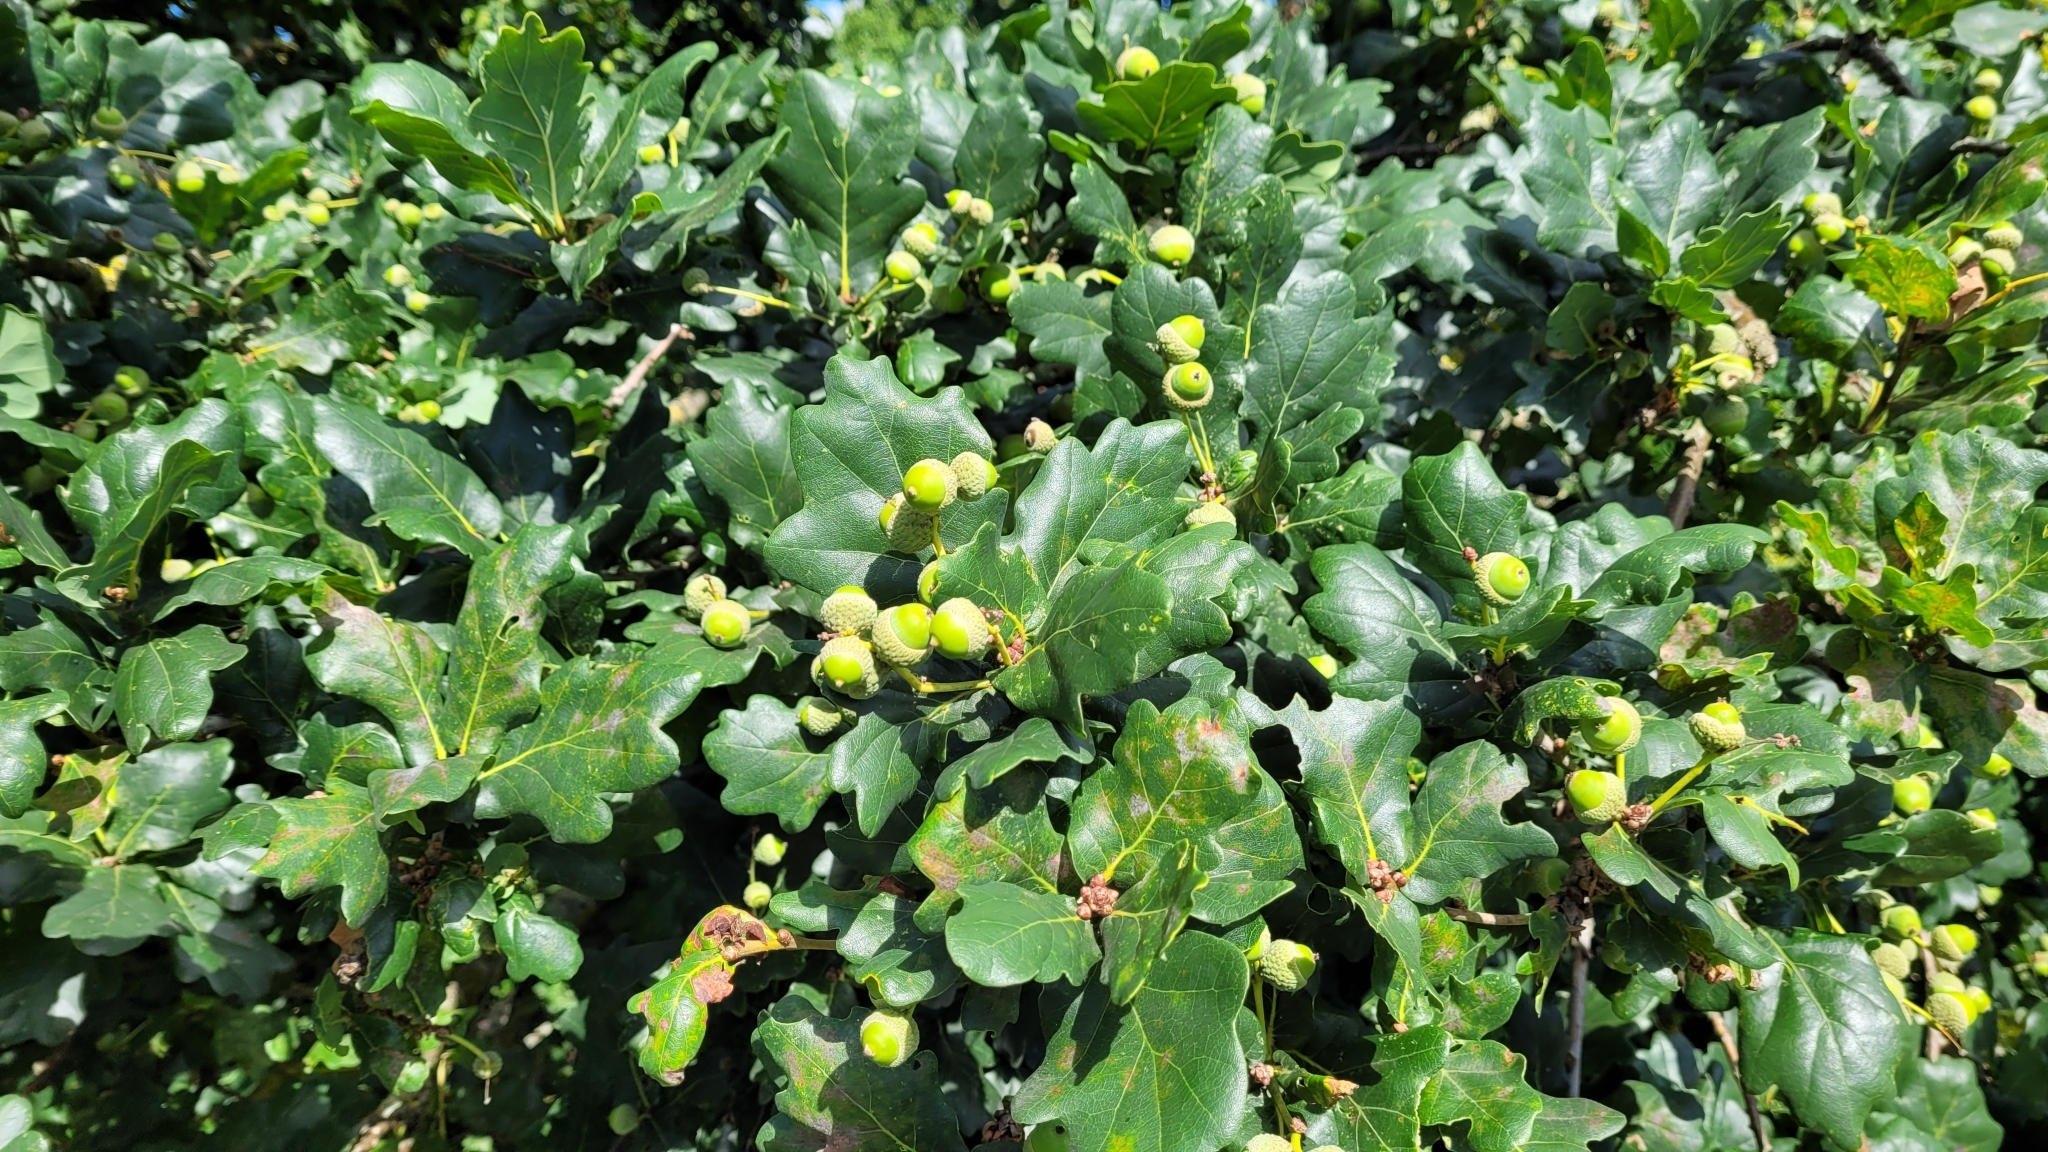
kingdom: Plantae
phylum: Tracheophyta
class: Magnoliopsida
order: Fagales
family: Fagaceae
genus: Quercus
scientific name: Quercus robur
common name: Pedunculate oak
